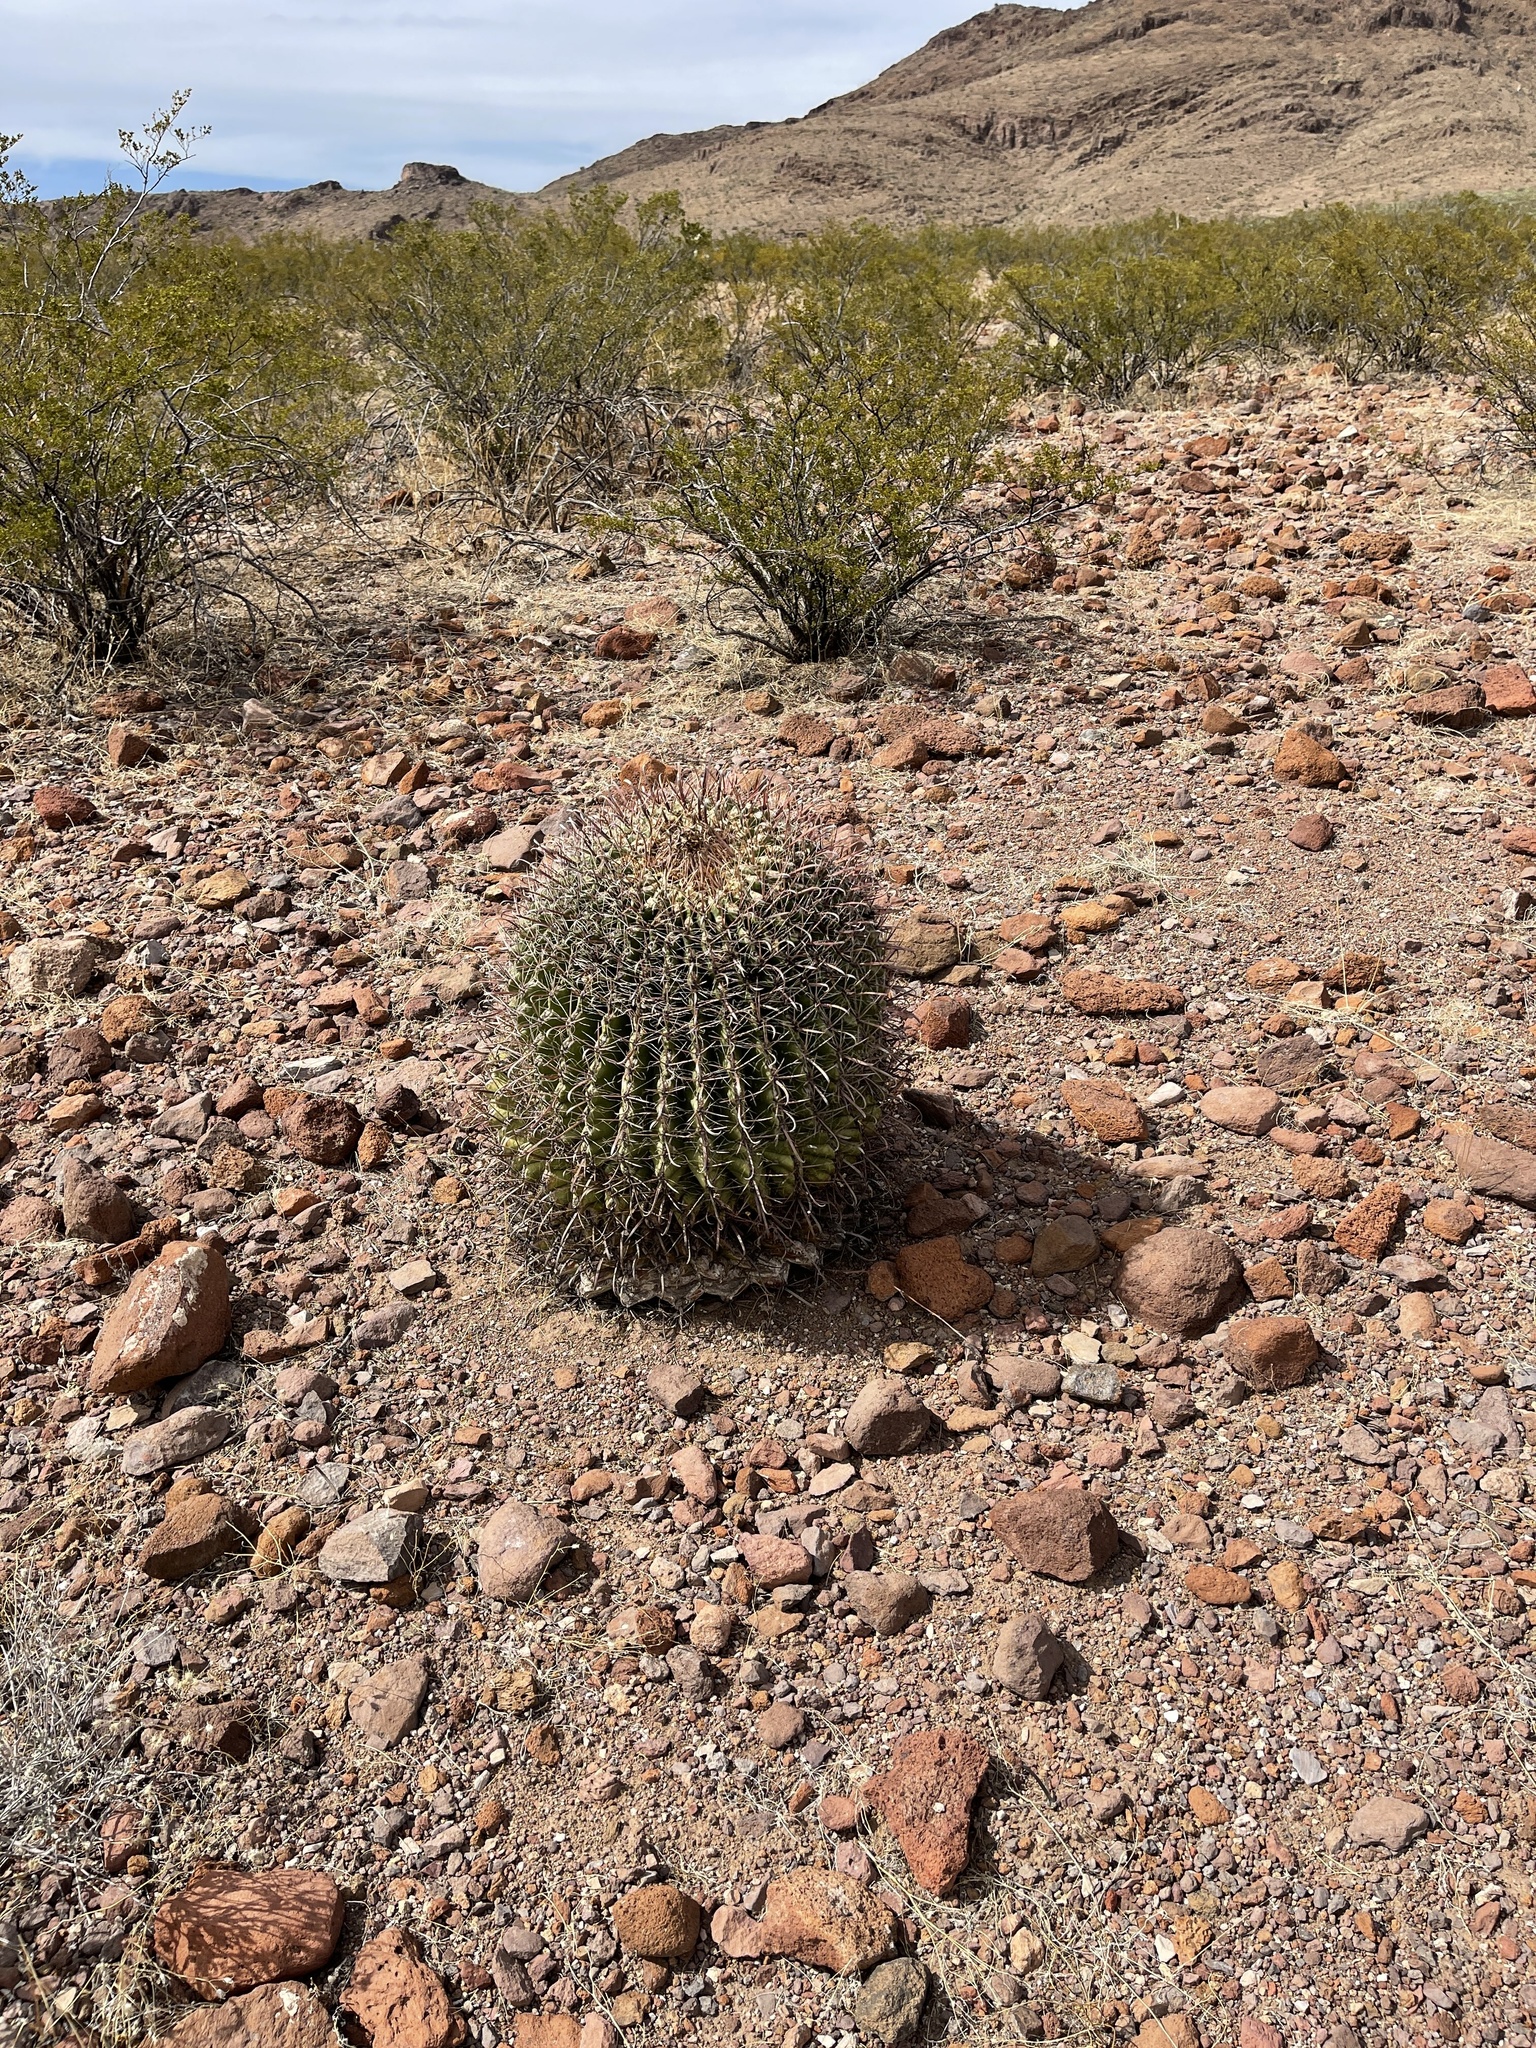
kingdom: Plantae
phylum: Tracheophyta
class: Magnoliopsida
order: Caryophyllales
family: Cactaceae
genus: Ferocactus
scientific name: Ferocactus wislizeni
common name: Candy barrel cactus
